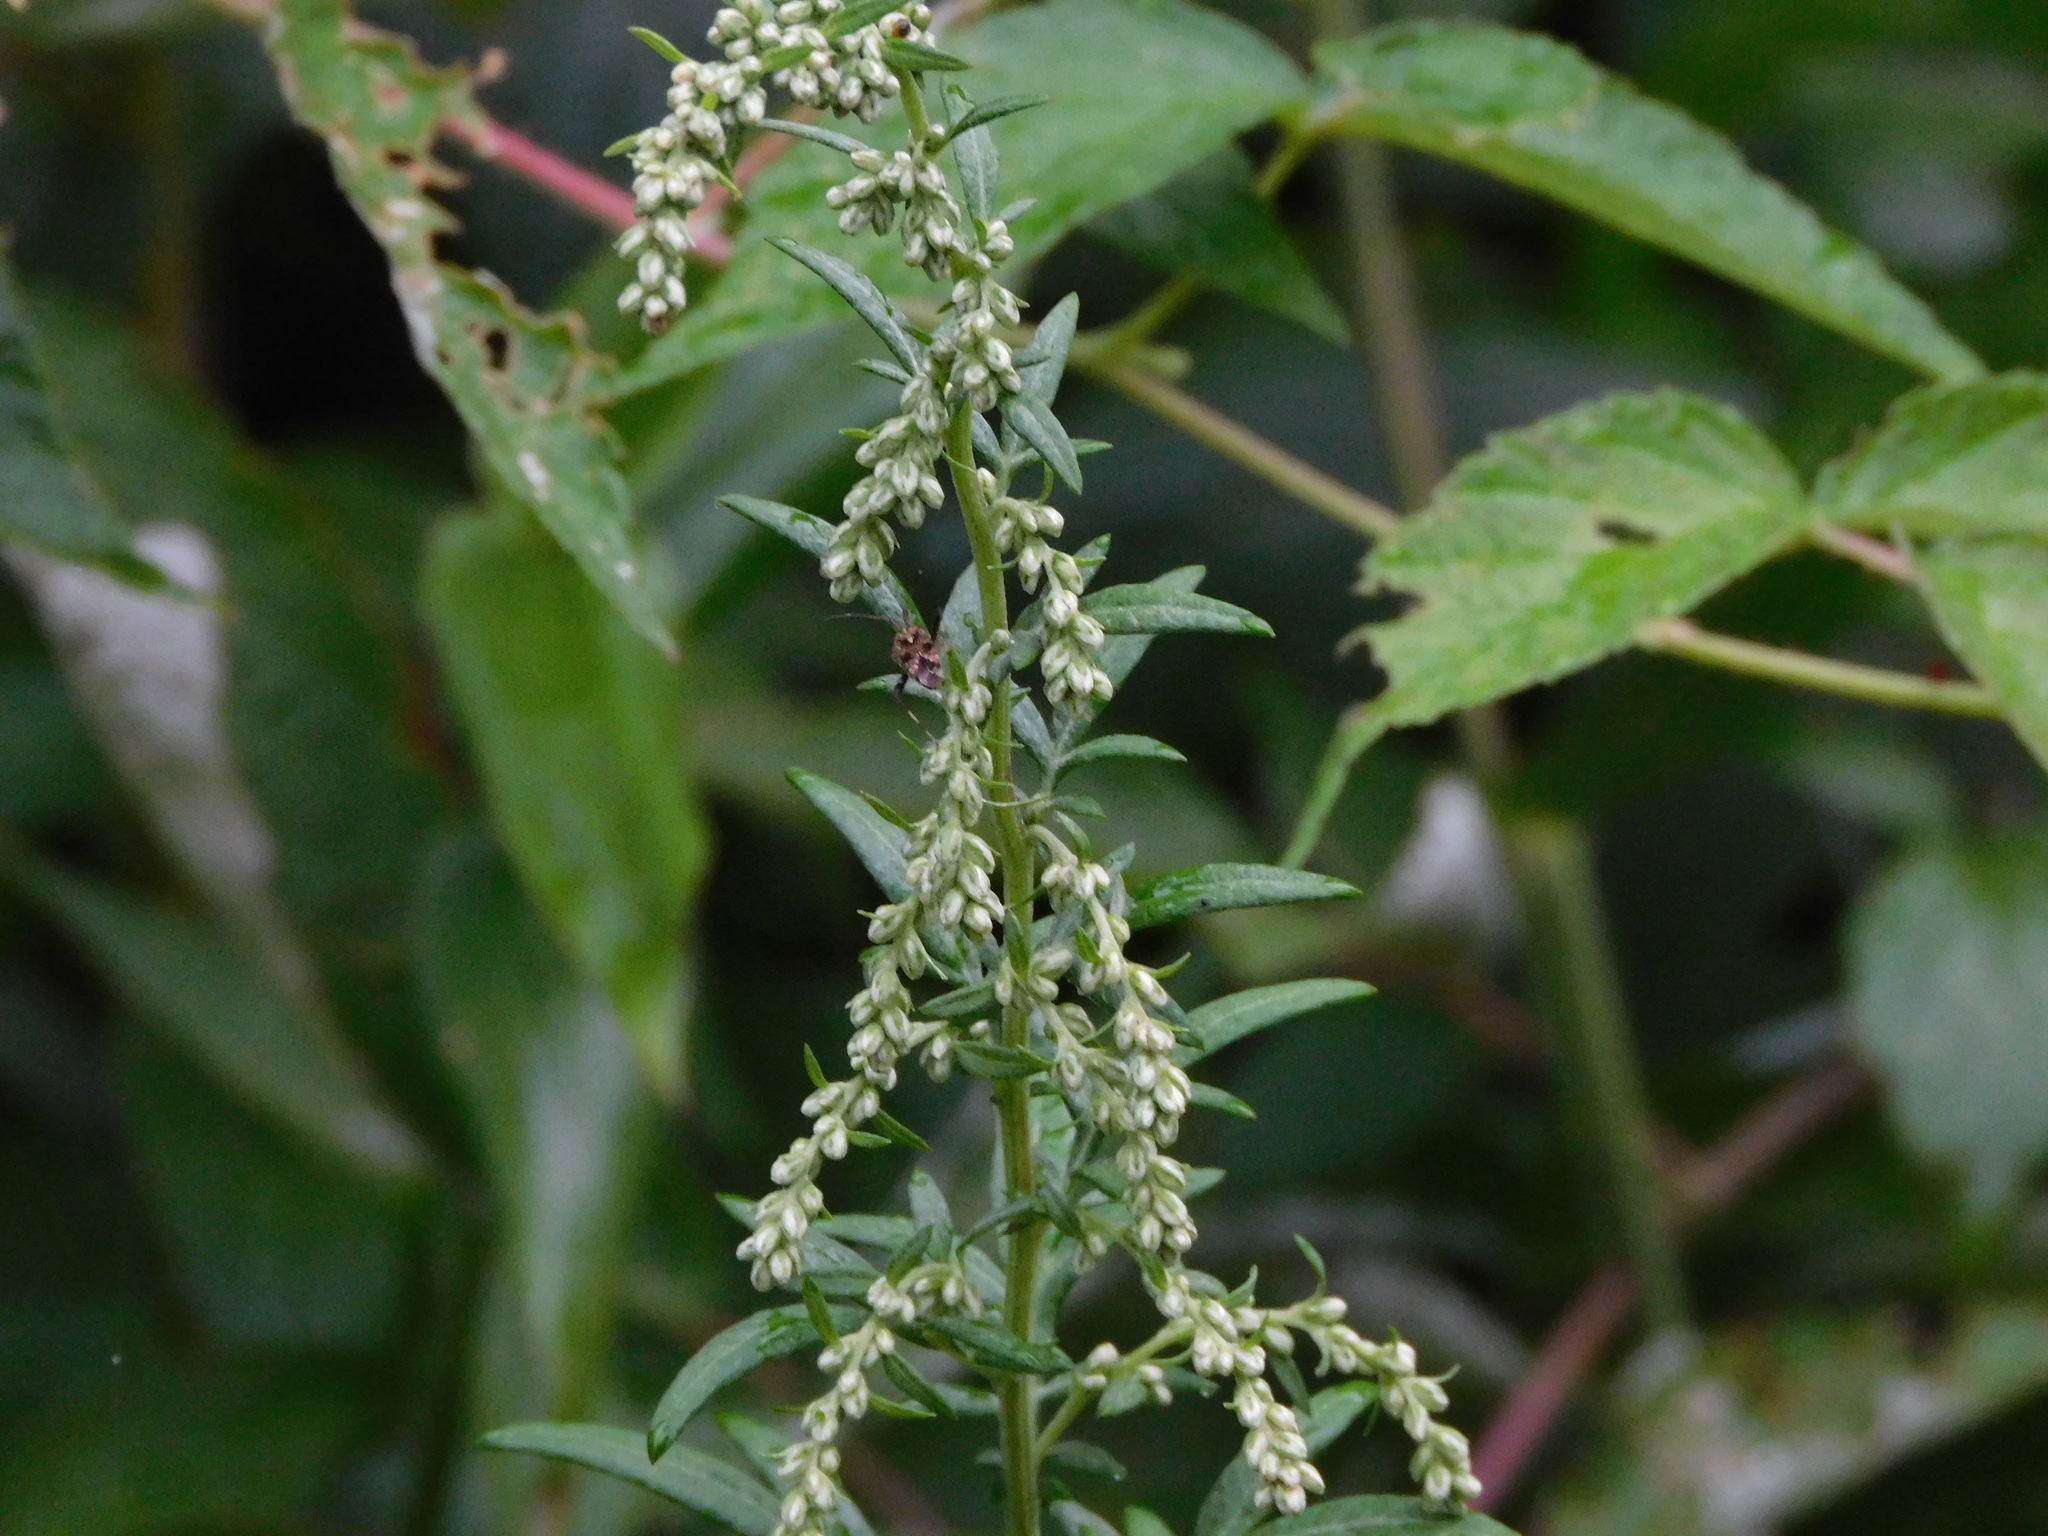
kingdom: Plantae
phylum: Tracheophyta
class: Magnoliopsida
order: Asterales
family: Asteraceae
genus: Artemisia
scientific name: Artemisia vulgaris
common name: Mugwort
